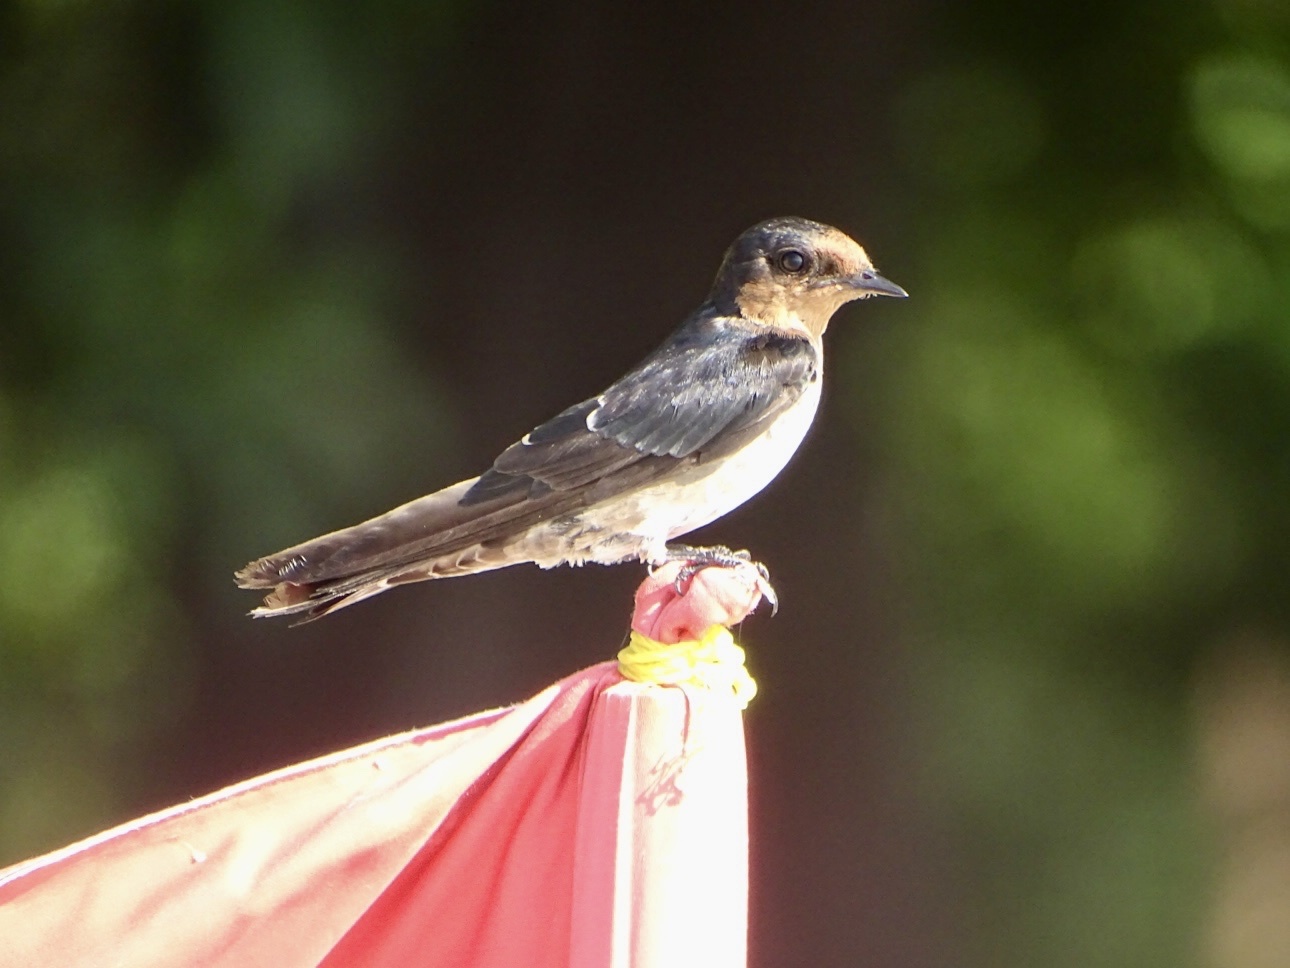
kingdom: Animalia
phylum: Chordata
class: Aves
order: Passeriformes
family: Hirundinidae
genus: Hirundo
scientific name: Hirundo tahitica
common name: Pacific swallow
